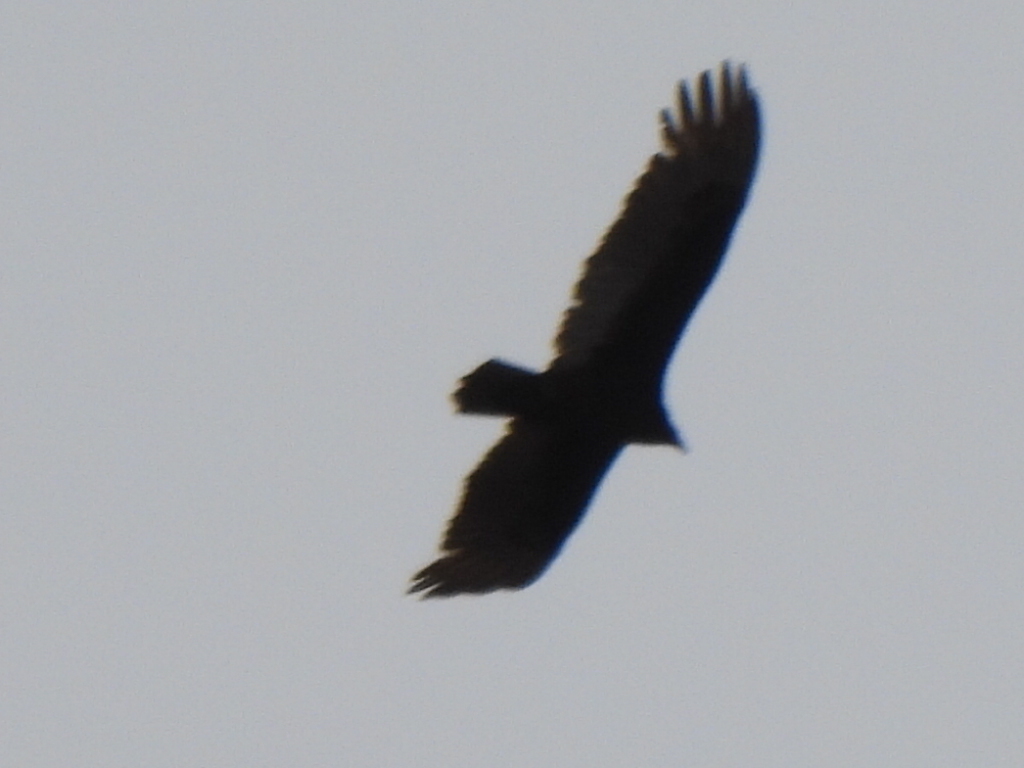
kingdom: Animalia
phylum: Chordata
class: Aves
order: Accipitriformes
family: Cathartidae
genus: Cathartes
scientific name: Cathartes aura
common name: Turkey vulture
